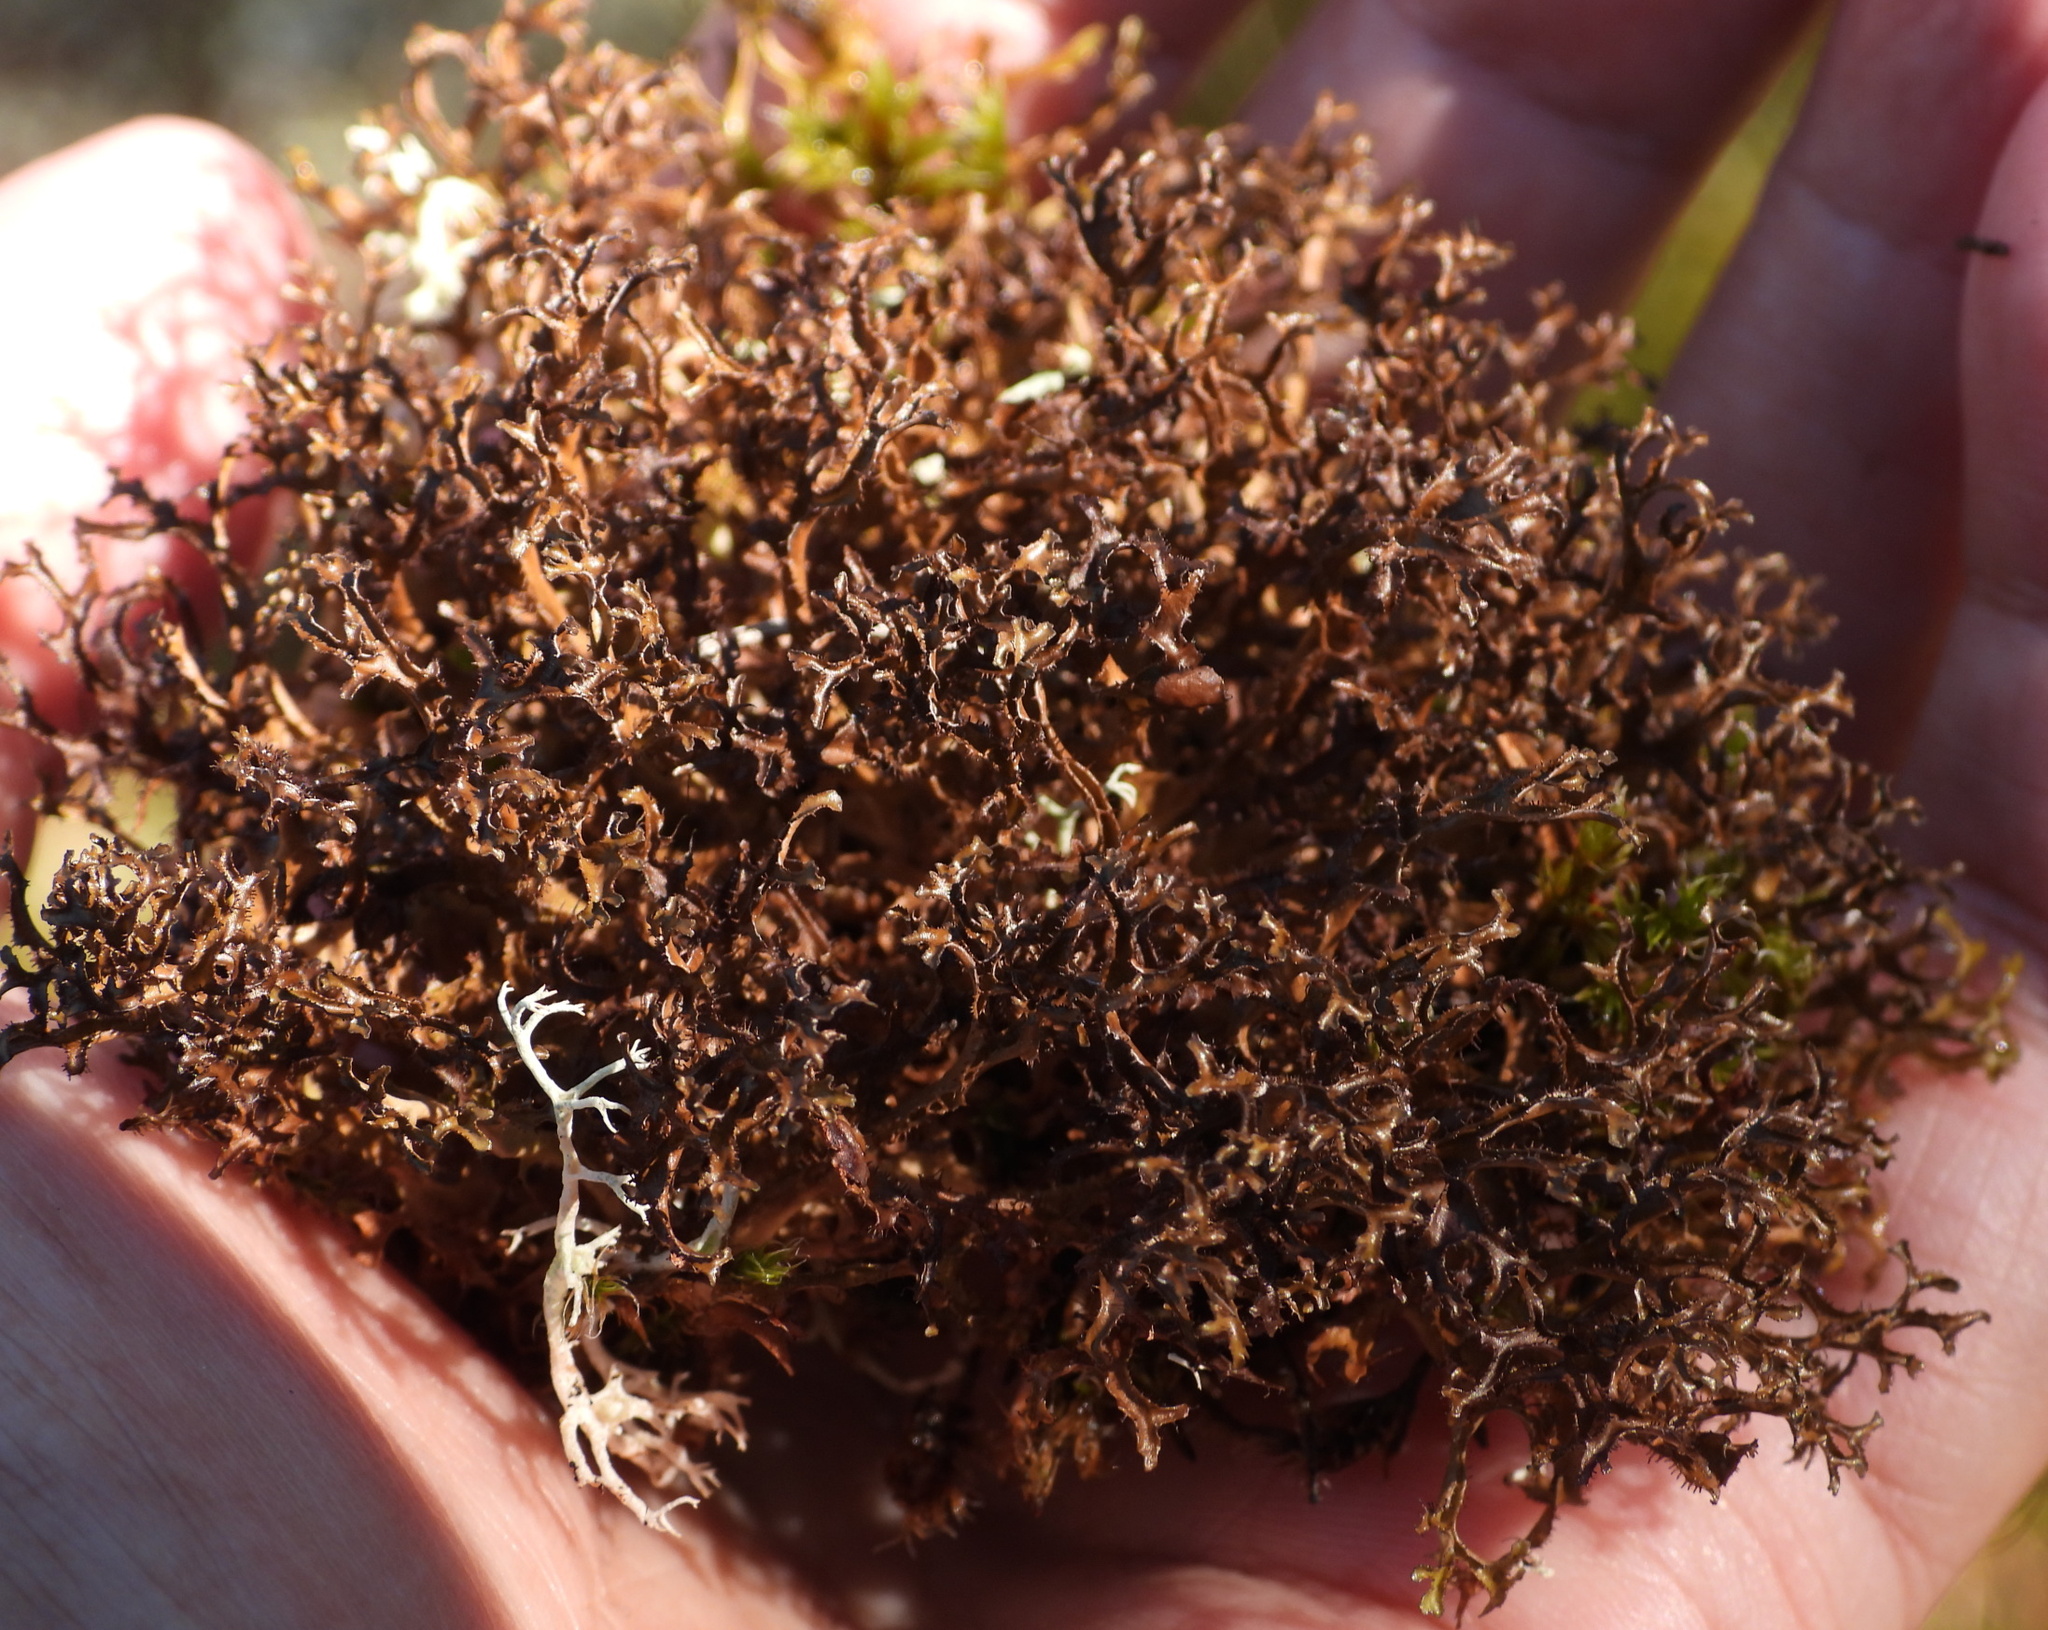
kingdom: Fungi
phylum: Ascomycota
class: Lecanoromycetes
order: Lecanorales
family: Parmeliaceae
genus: Cetraria
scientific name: Cetraria ericetorum
